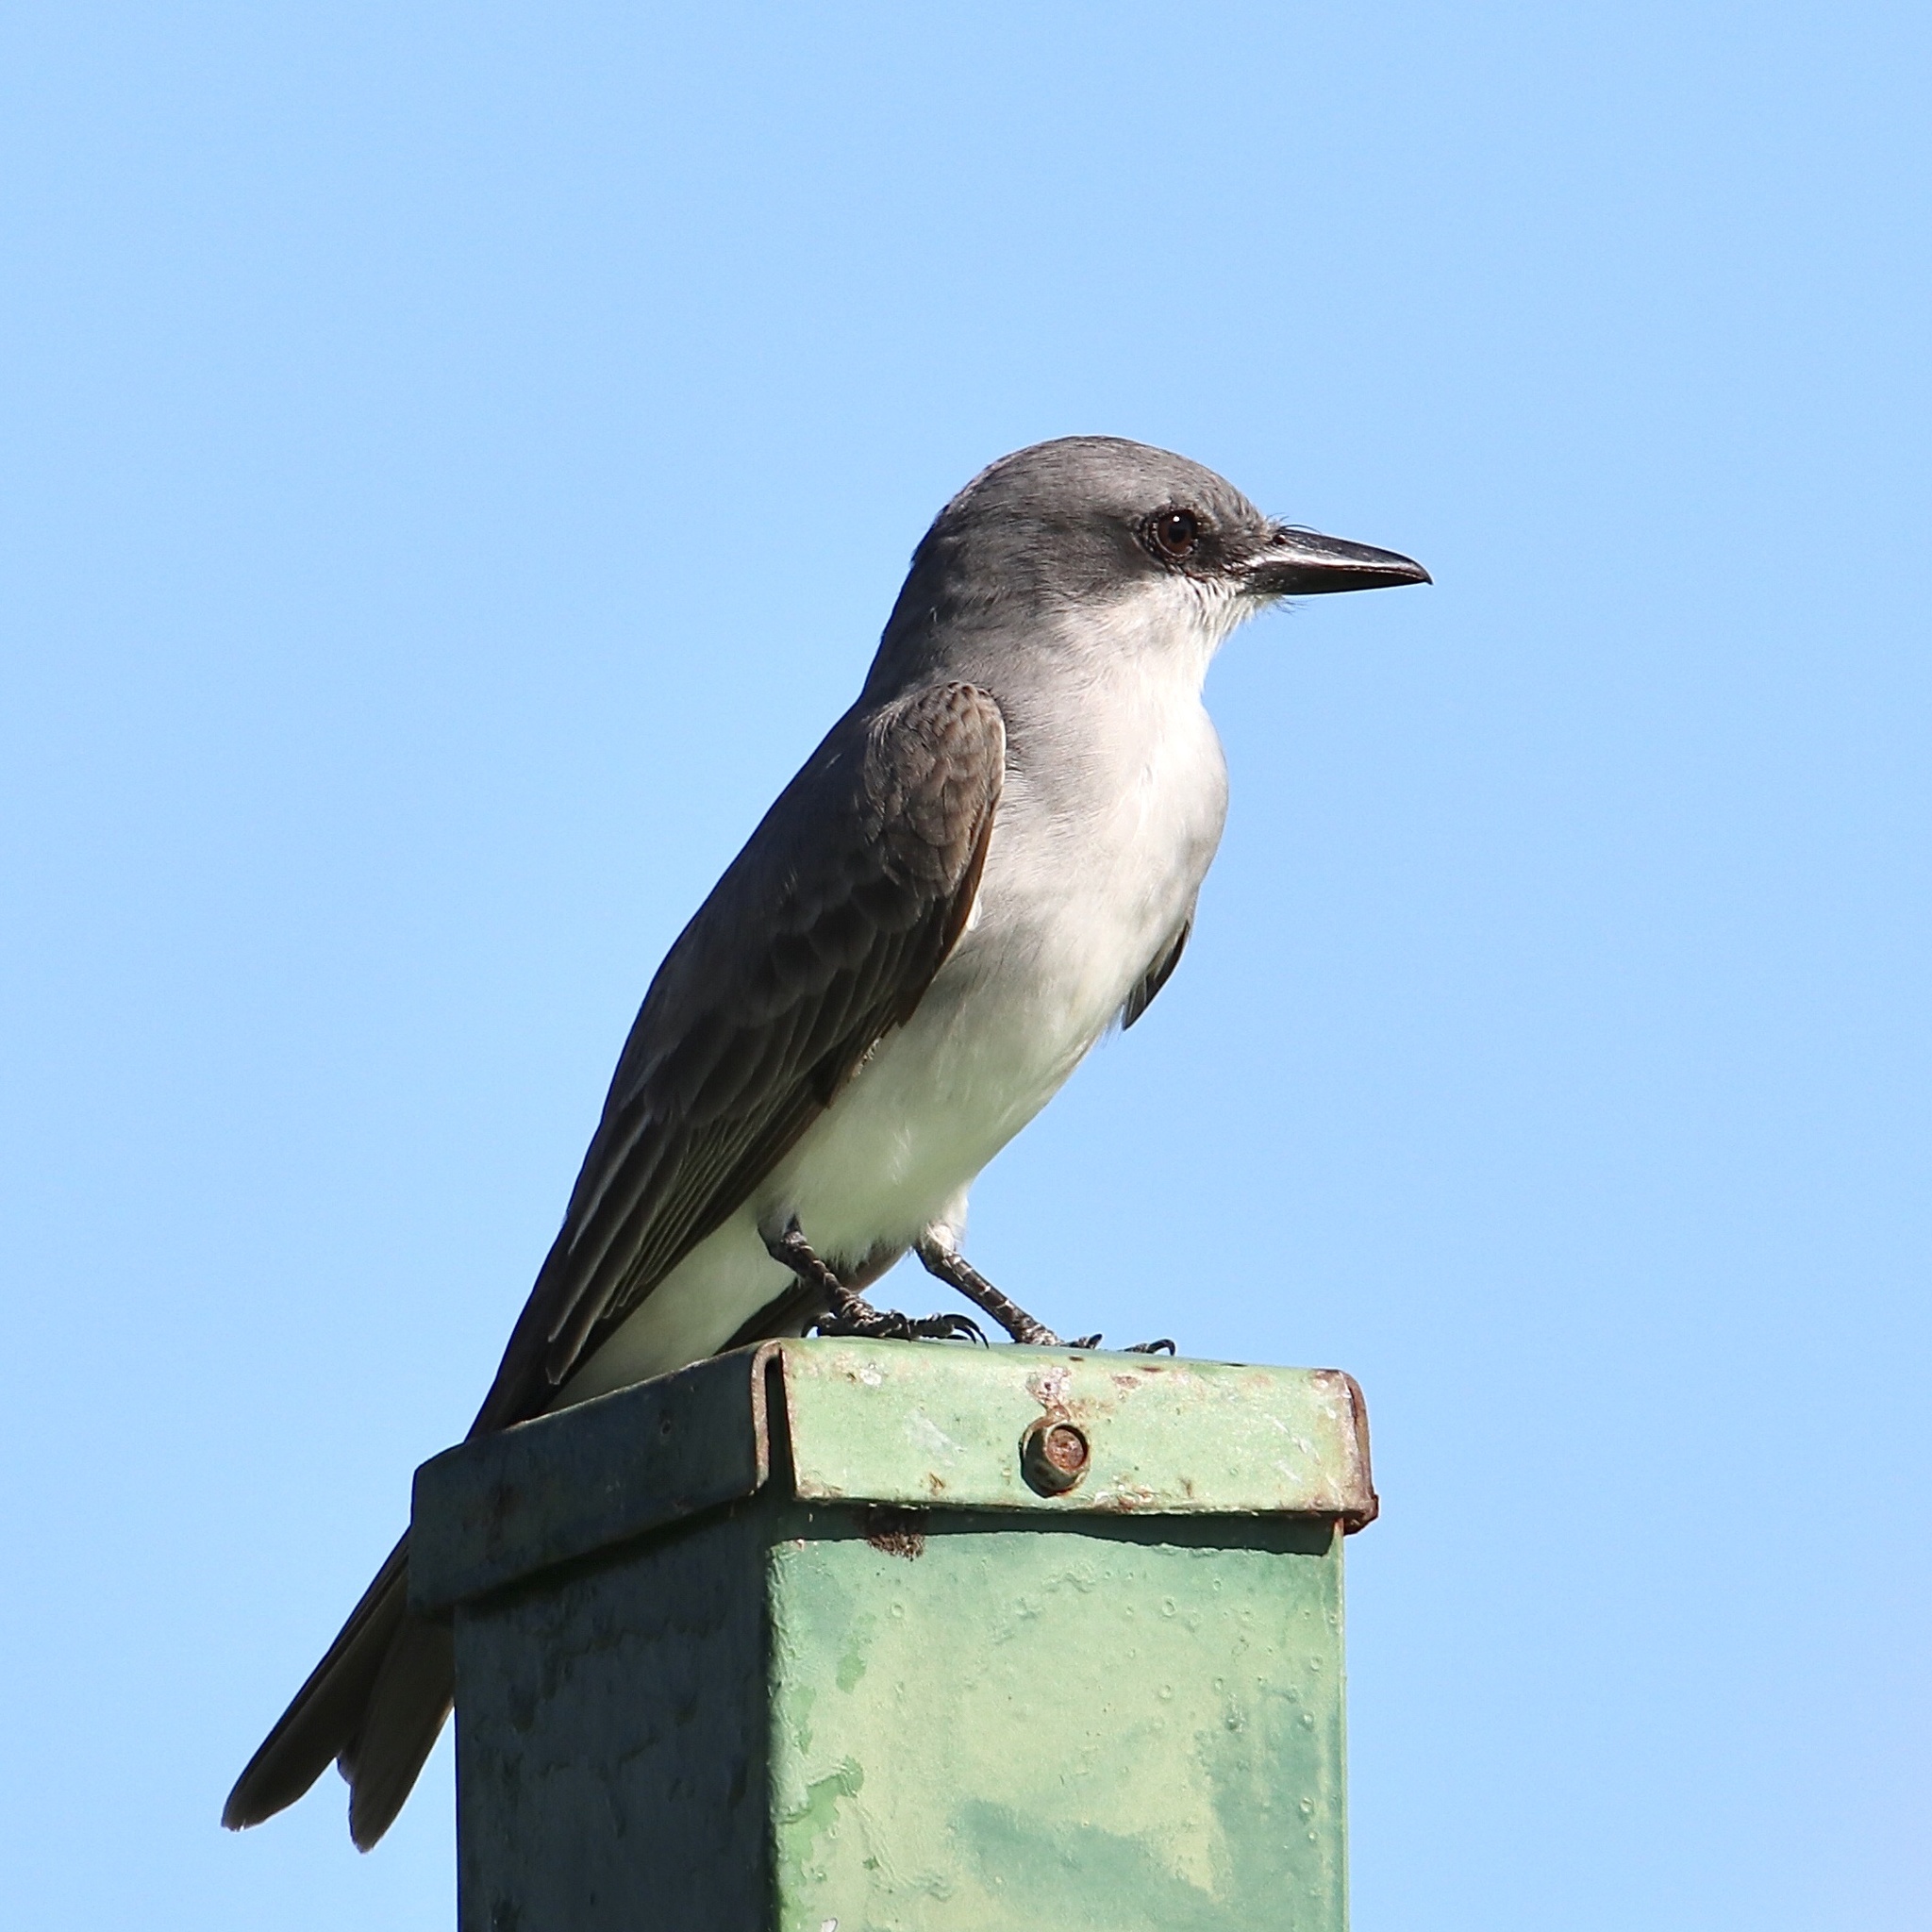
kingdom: Animalia
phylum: Chordata
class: Aves
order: Passeriformes
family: Tyrannidae
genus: Tyrannus
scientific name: Tyrannus dominicensis
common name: Gray kingbird
